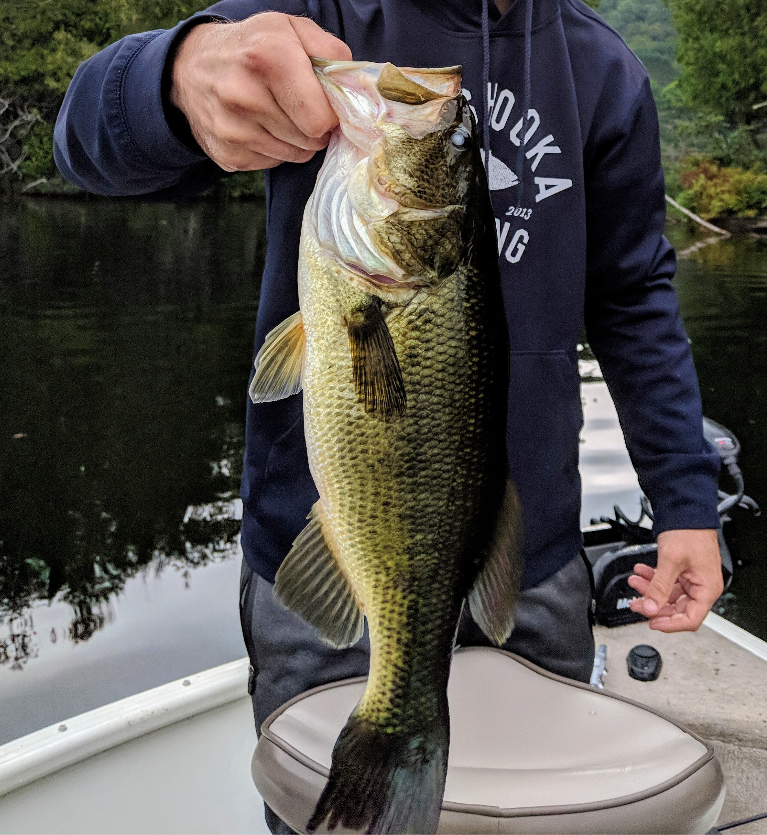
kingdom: Animalia
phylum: Chordata
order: Perciformes
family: Centrarchidae
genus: Micropterus
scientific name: Micropterus
